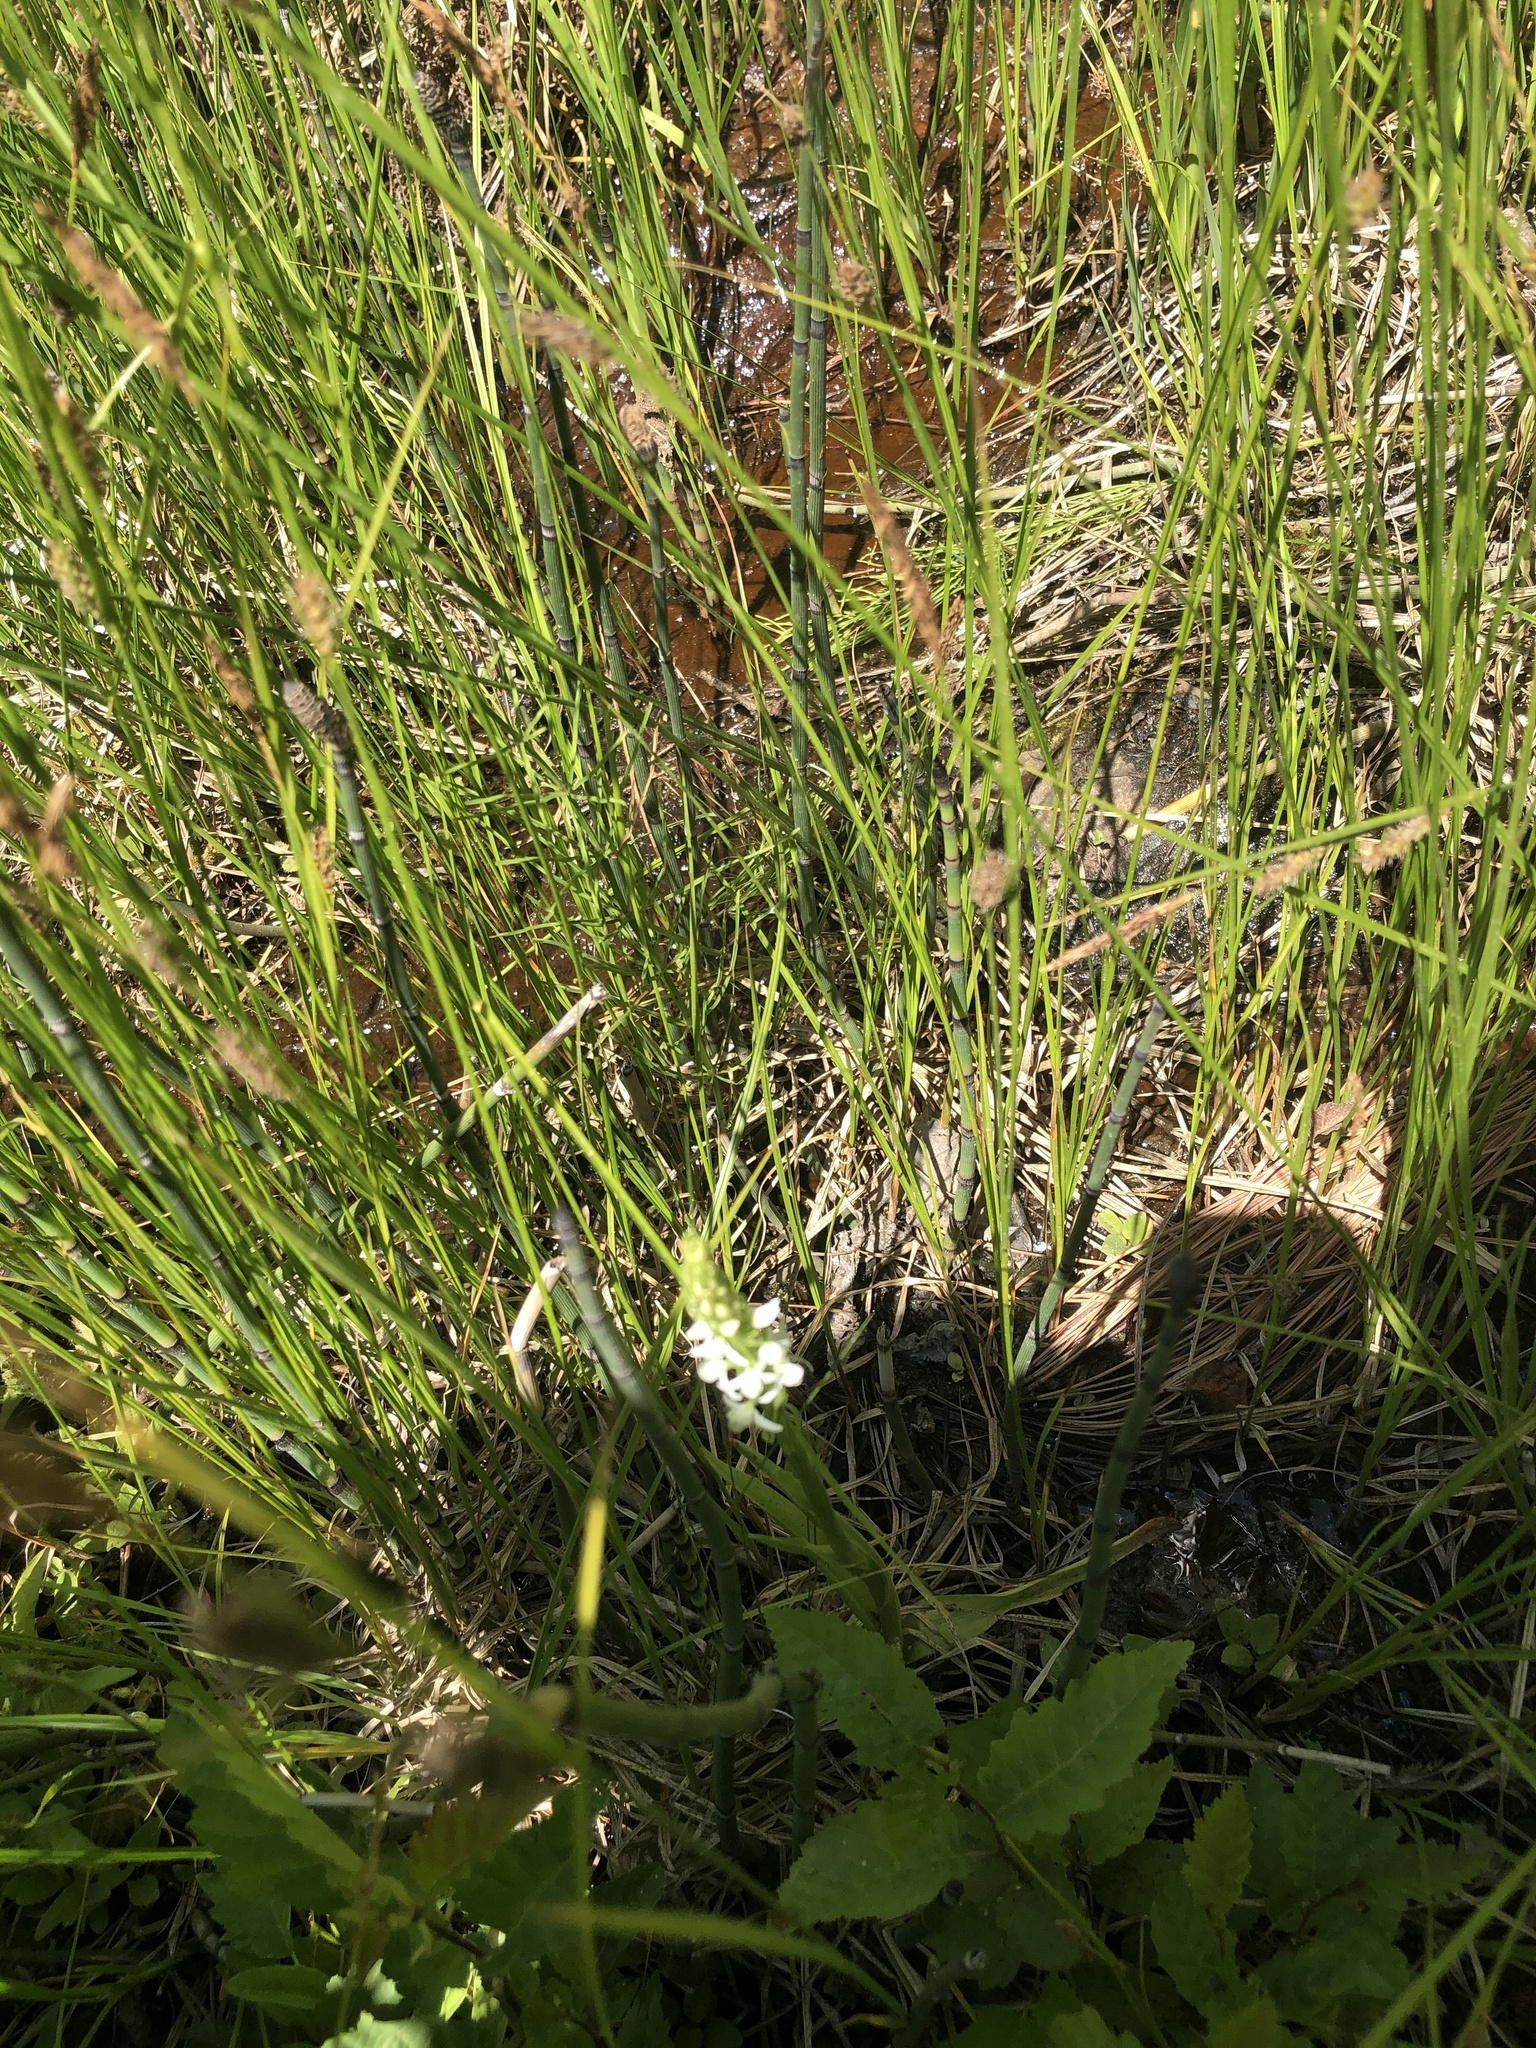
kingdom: Plantae
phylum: Tracheophyta
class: Liliopsida
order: Asparagales
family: Orchidaceae
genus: Platanthera
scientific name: Platanthera dilatata
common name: Bog candles
